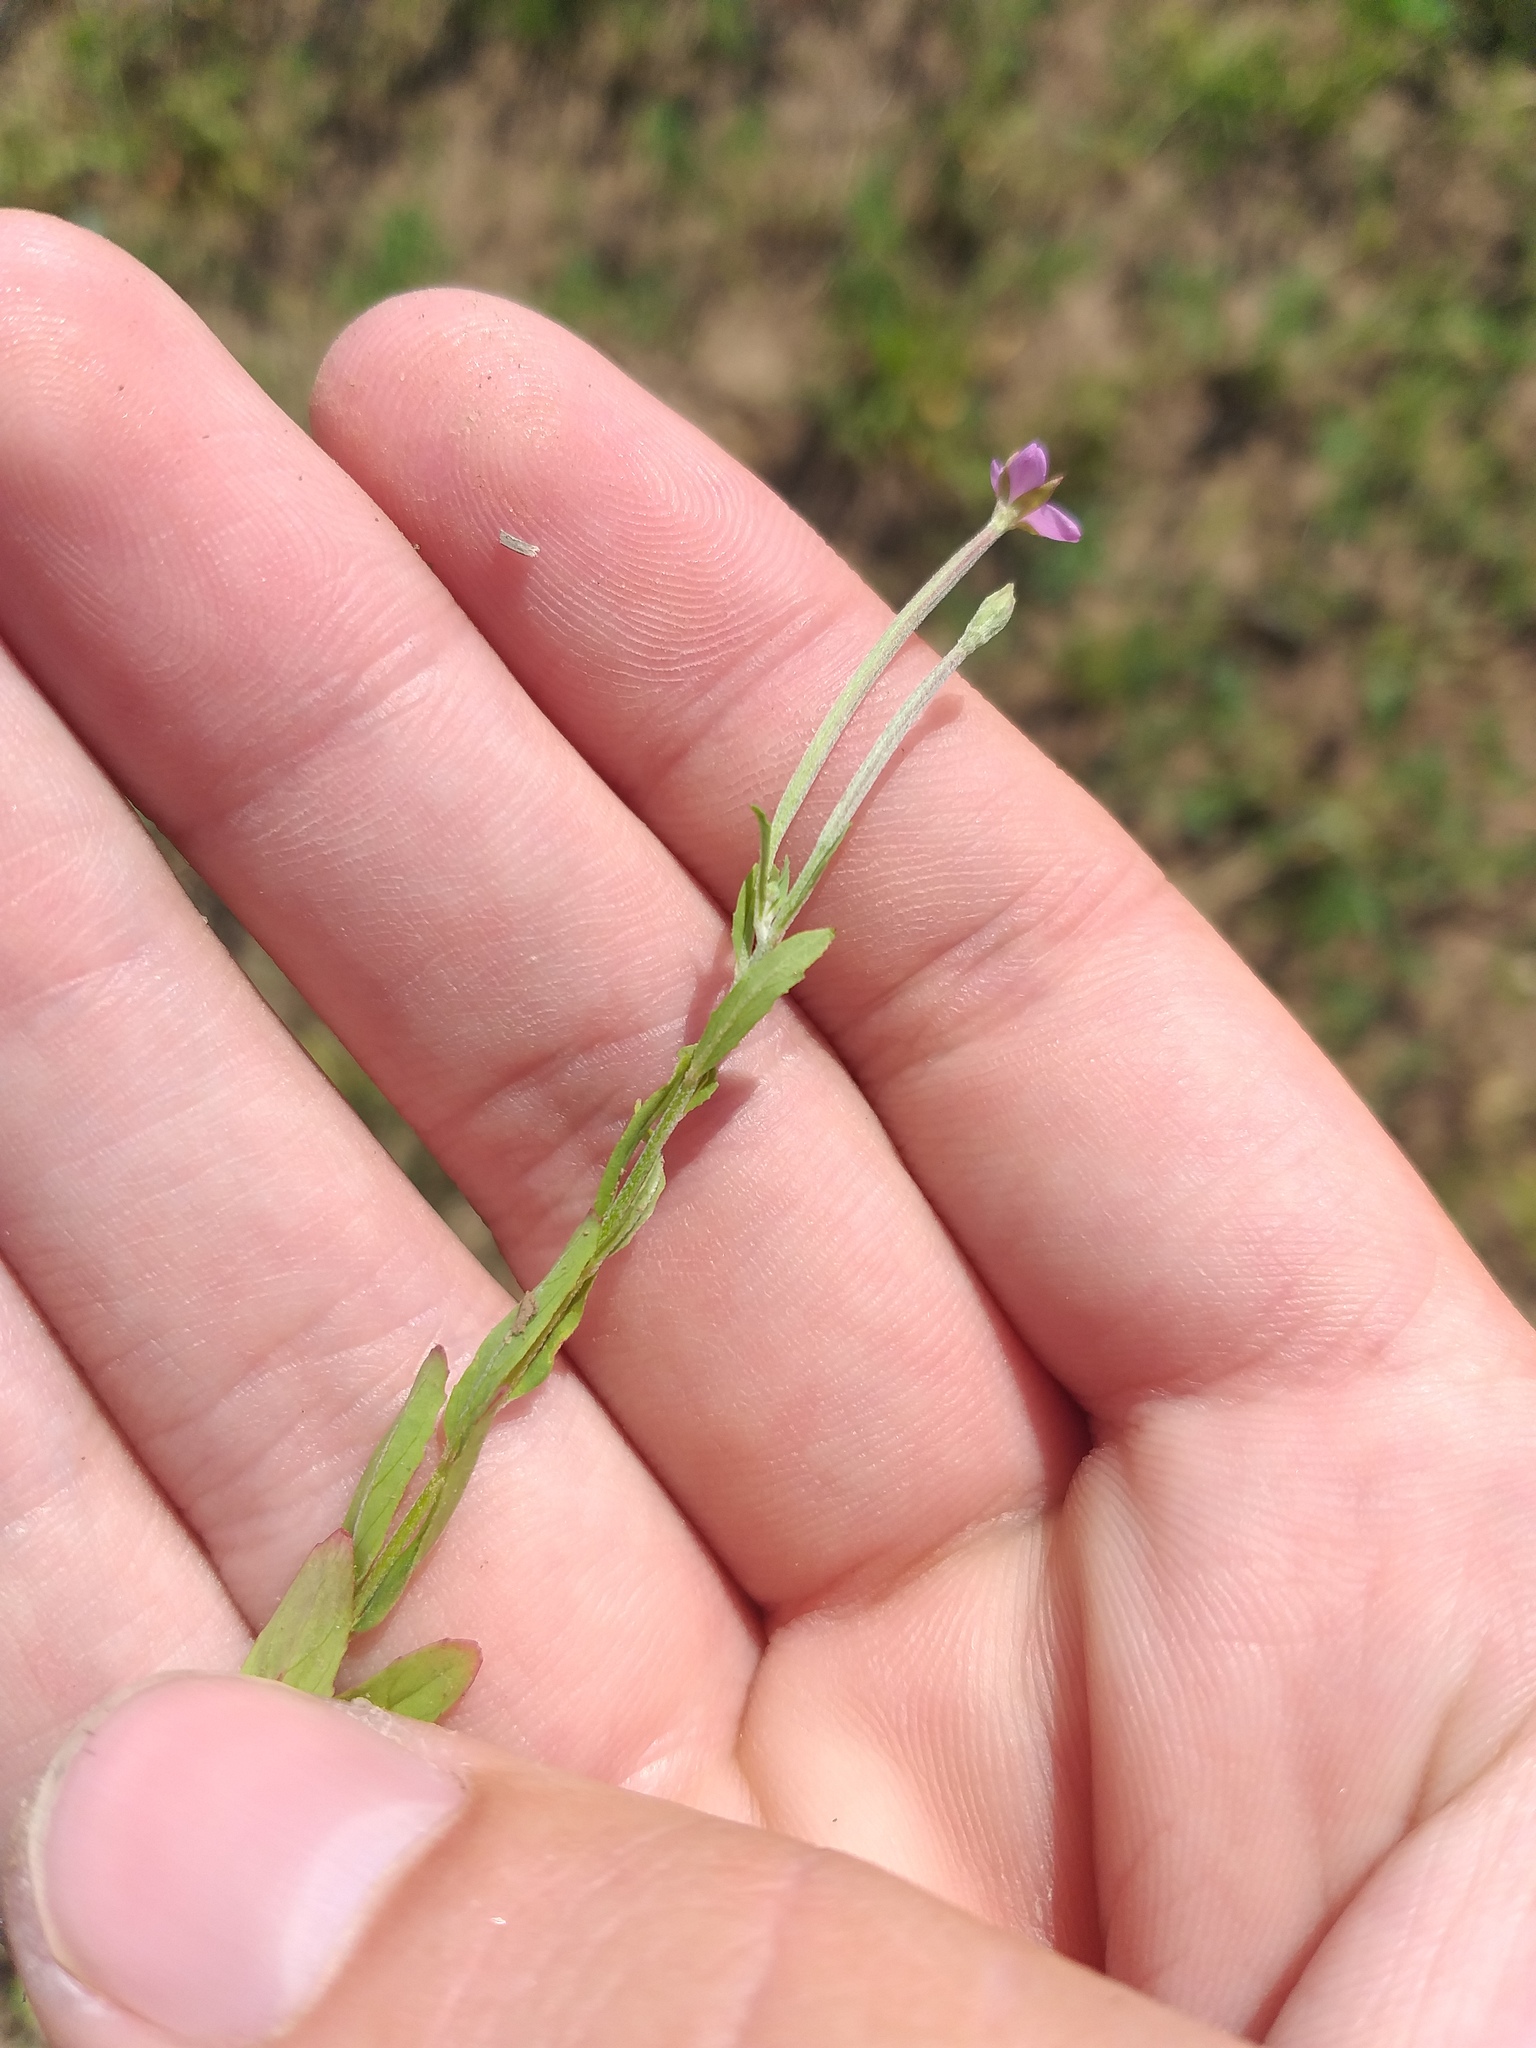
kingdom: Plantae
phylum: Tracheophyta
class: Magnoliopsida
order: Myrtales
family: Onagraceae
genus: Epilobium
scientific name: Epilobium lamyi
